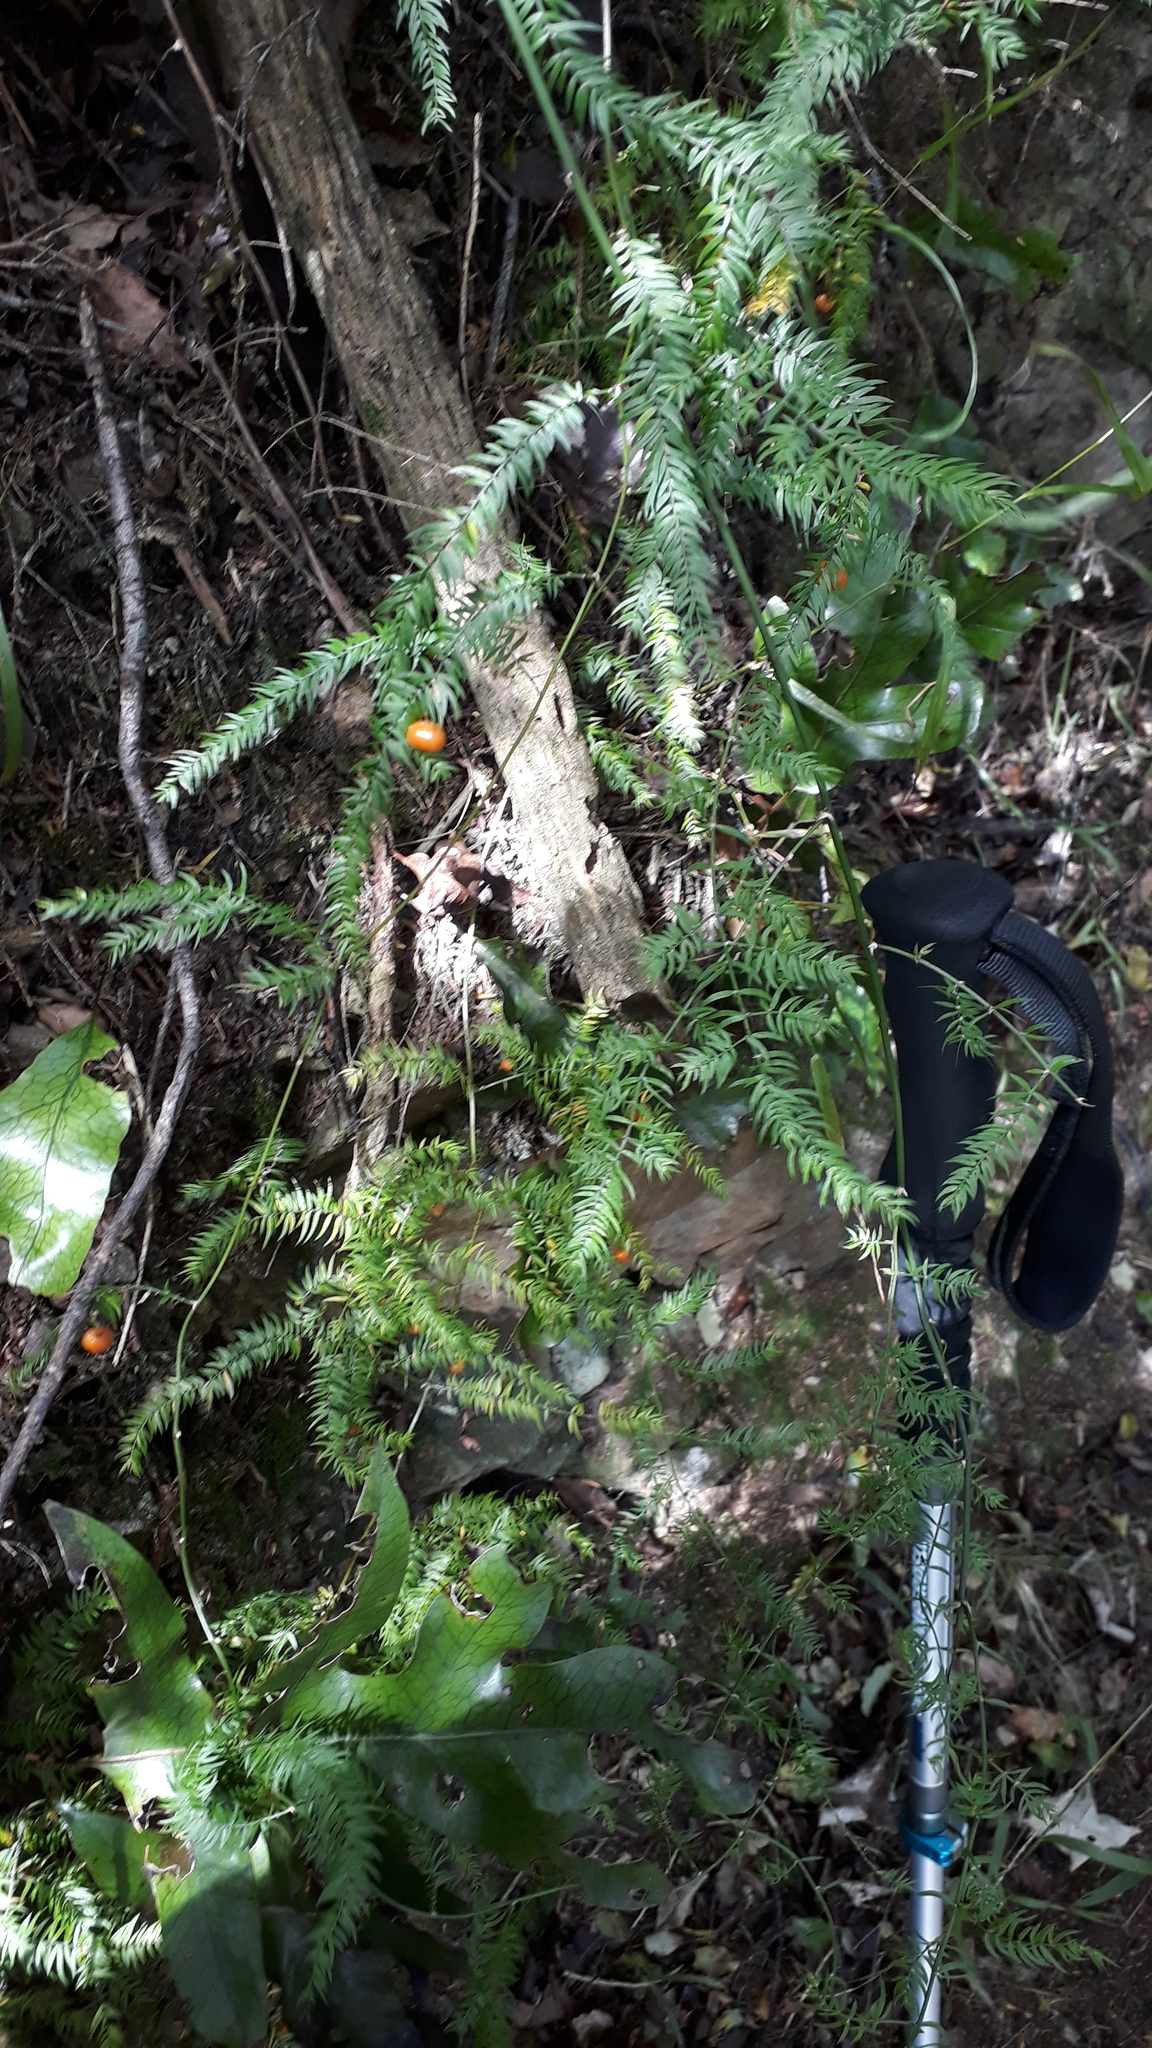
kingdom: Plantae
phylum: Tracheophyta
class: Liliopsida
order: Asparagales
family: Asparagaceae
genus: Asparagus
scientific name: Asparagus scandens
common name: Asparagus-fern
